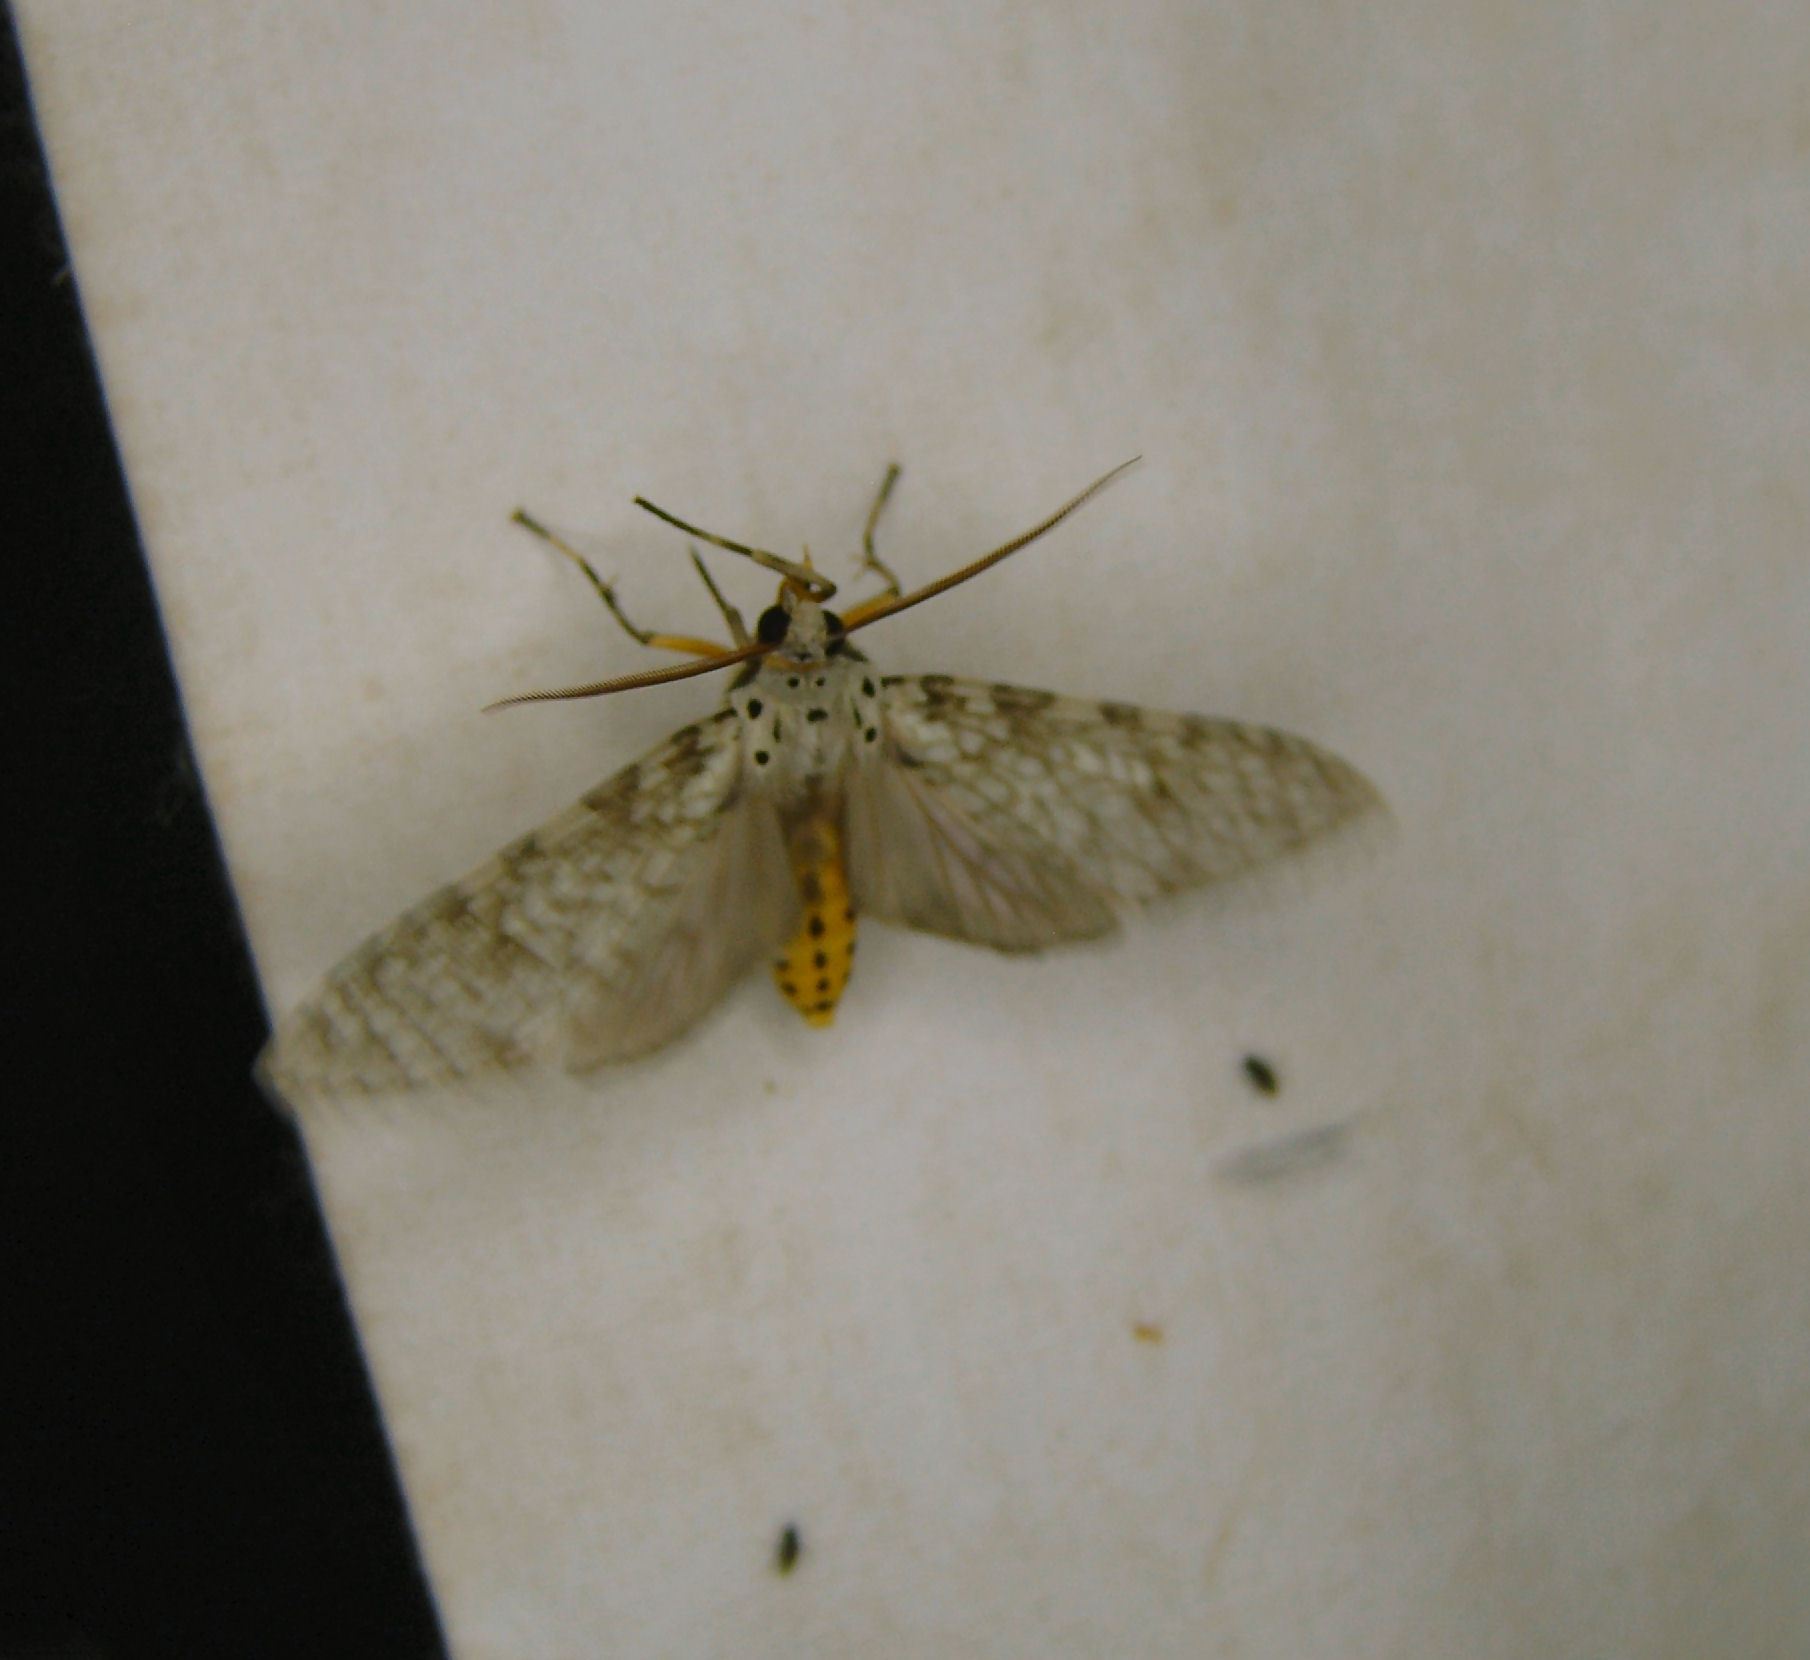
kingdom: Animalia
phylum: Arthropoda
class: Insecta
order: Lepidoptera
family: Erebidae
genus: Carales
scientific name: Carales arizonensis
